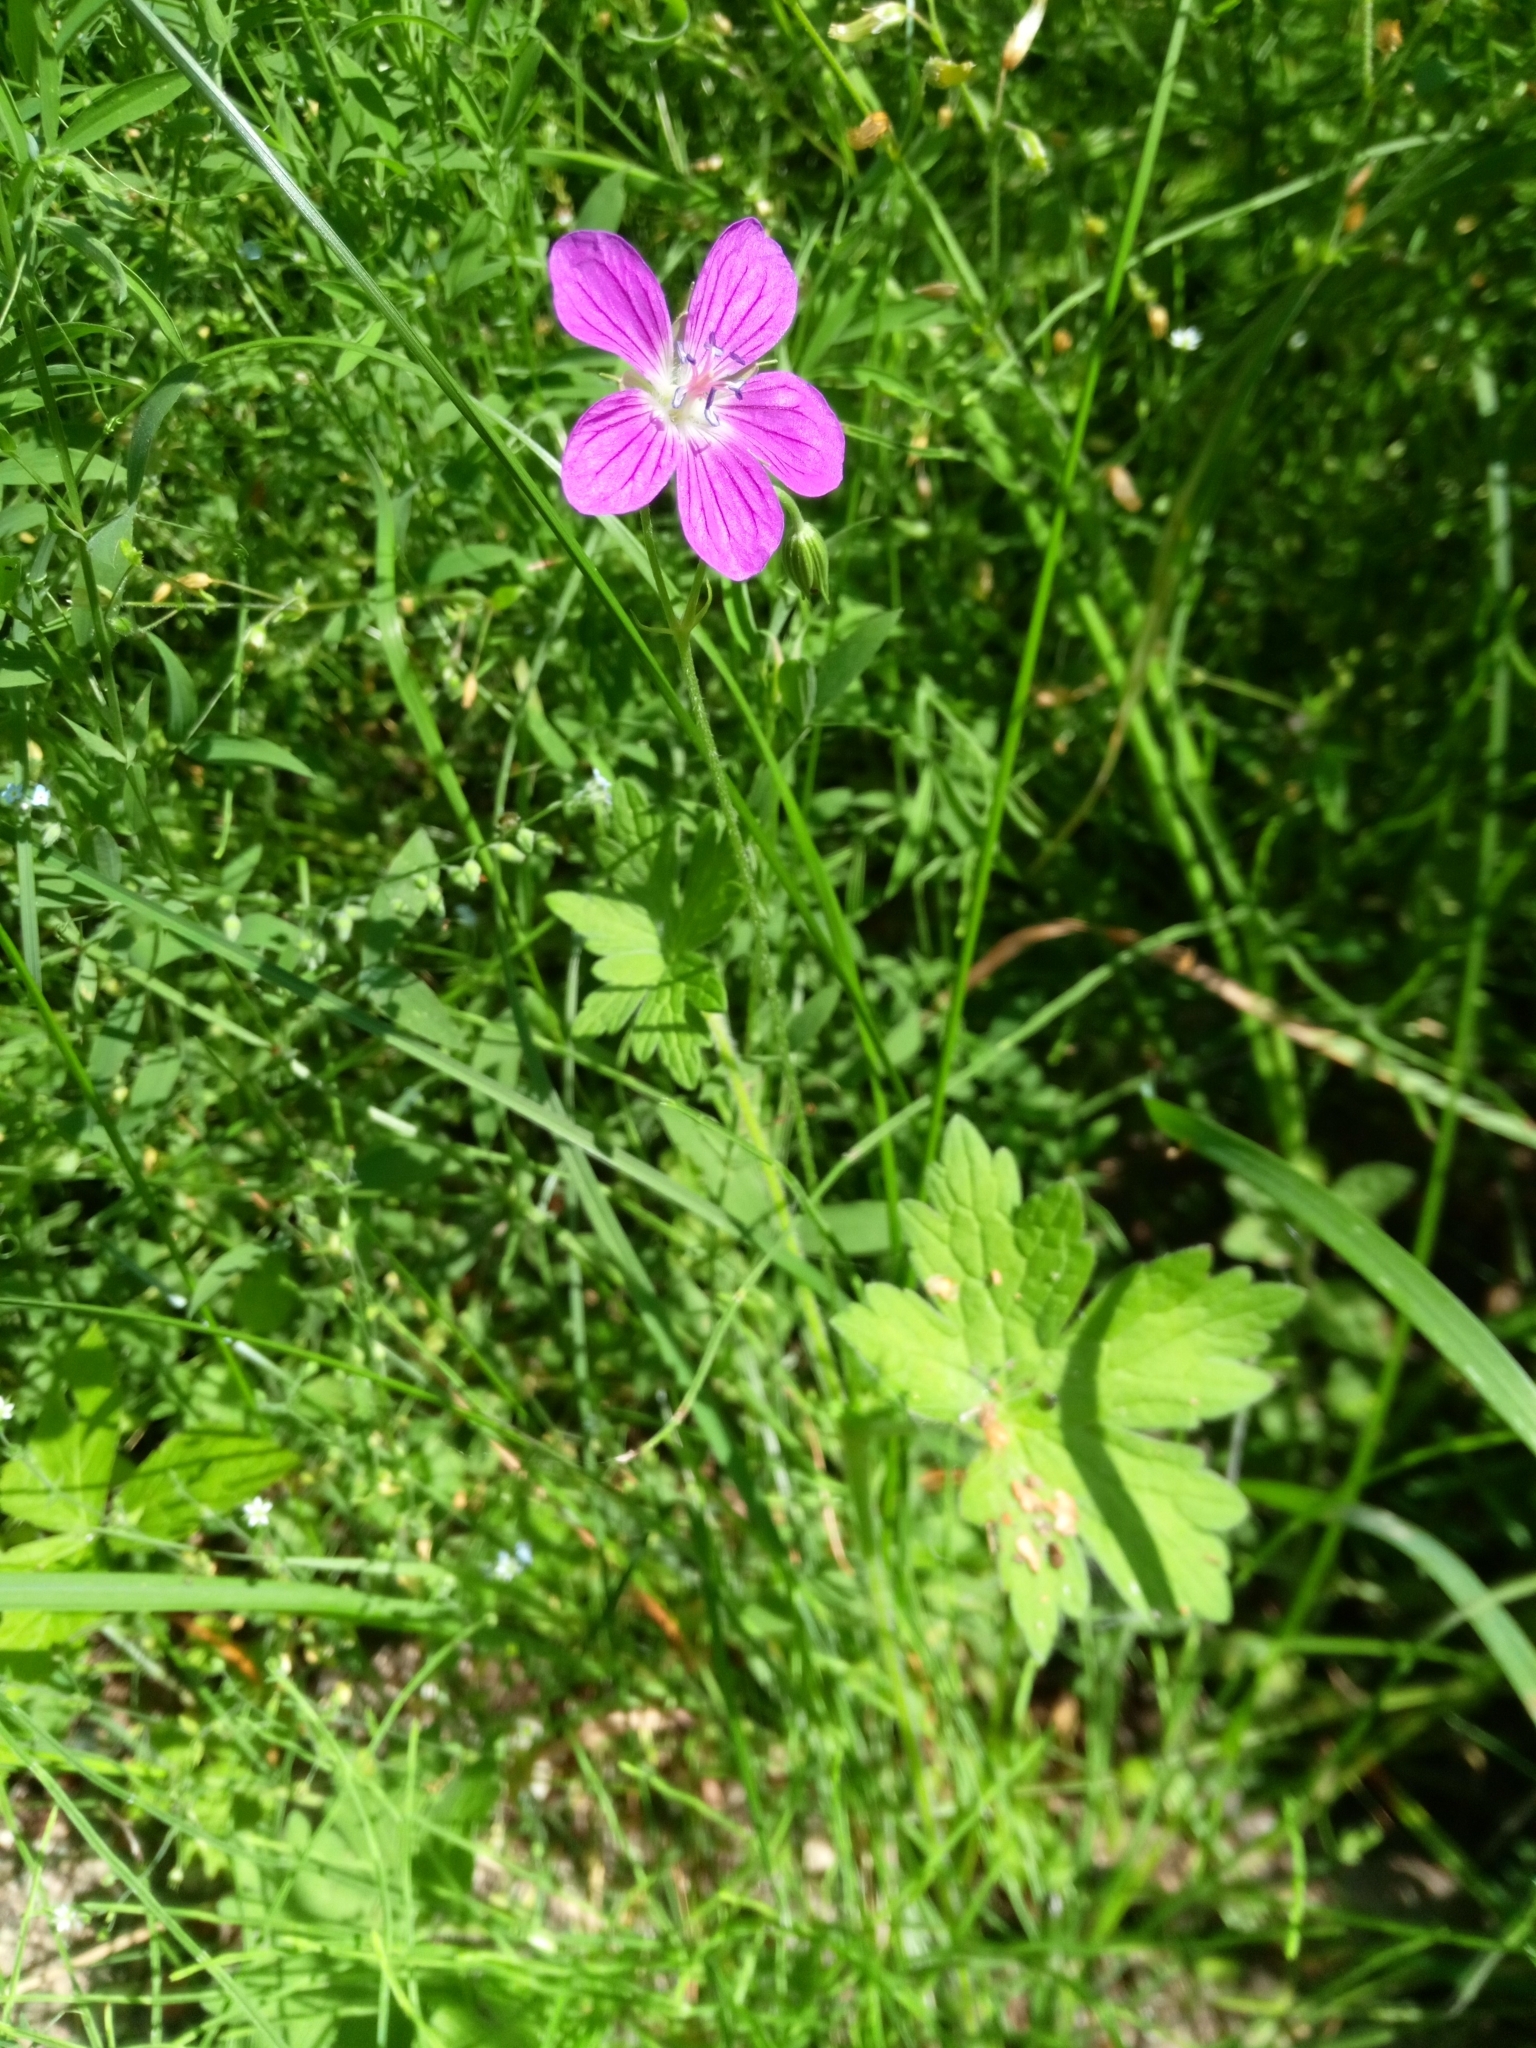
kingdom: Plantae
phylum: Tracheophyta
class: Magnoliopsida
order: Geraniales
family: Geraniaceae
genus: Geranium
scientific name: Geranium palustre
